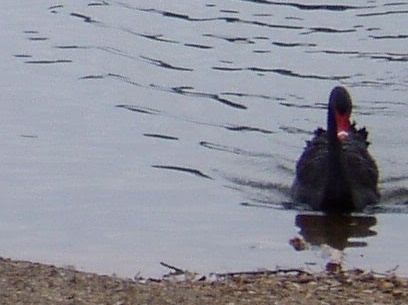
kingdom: Animalia
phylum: Chordata
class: Aves
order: Anseriformes
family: Anatidae
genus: Cygnus
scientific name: Cygnus atratus
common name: Black swan
